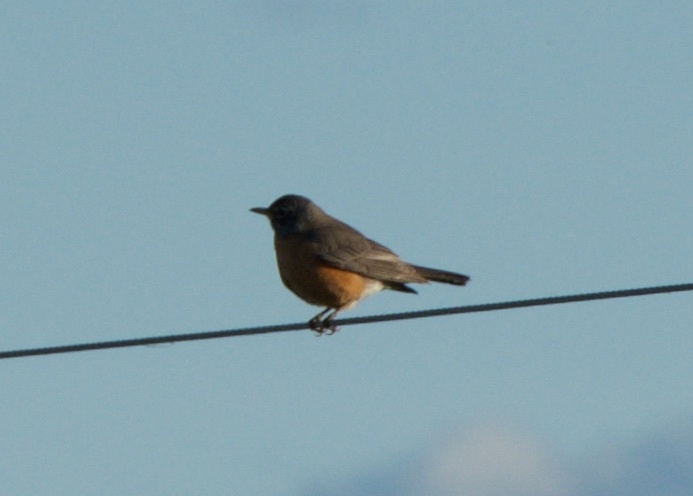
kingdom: Animalia
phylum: Chordata
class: Aves
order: Passeriformes
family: Turdidae
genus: Turdus
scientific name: Turdus migratorius
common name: American robin
